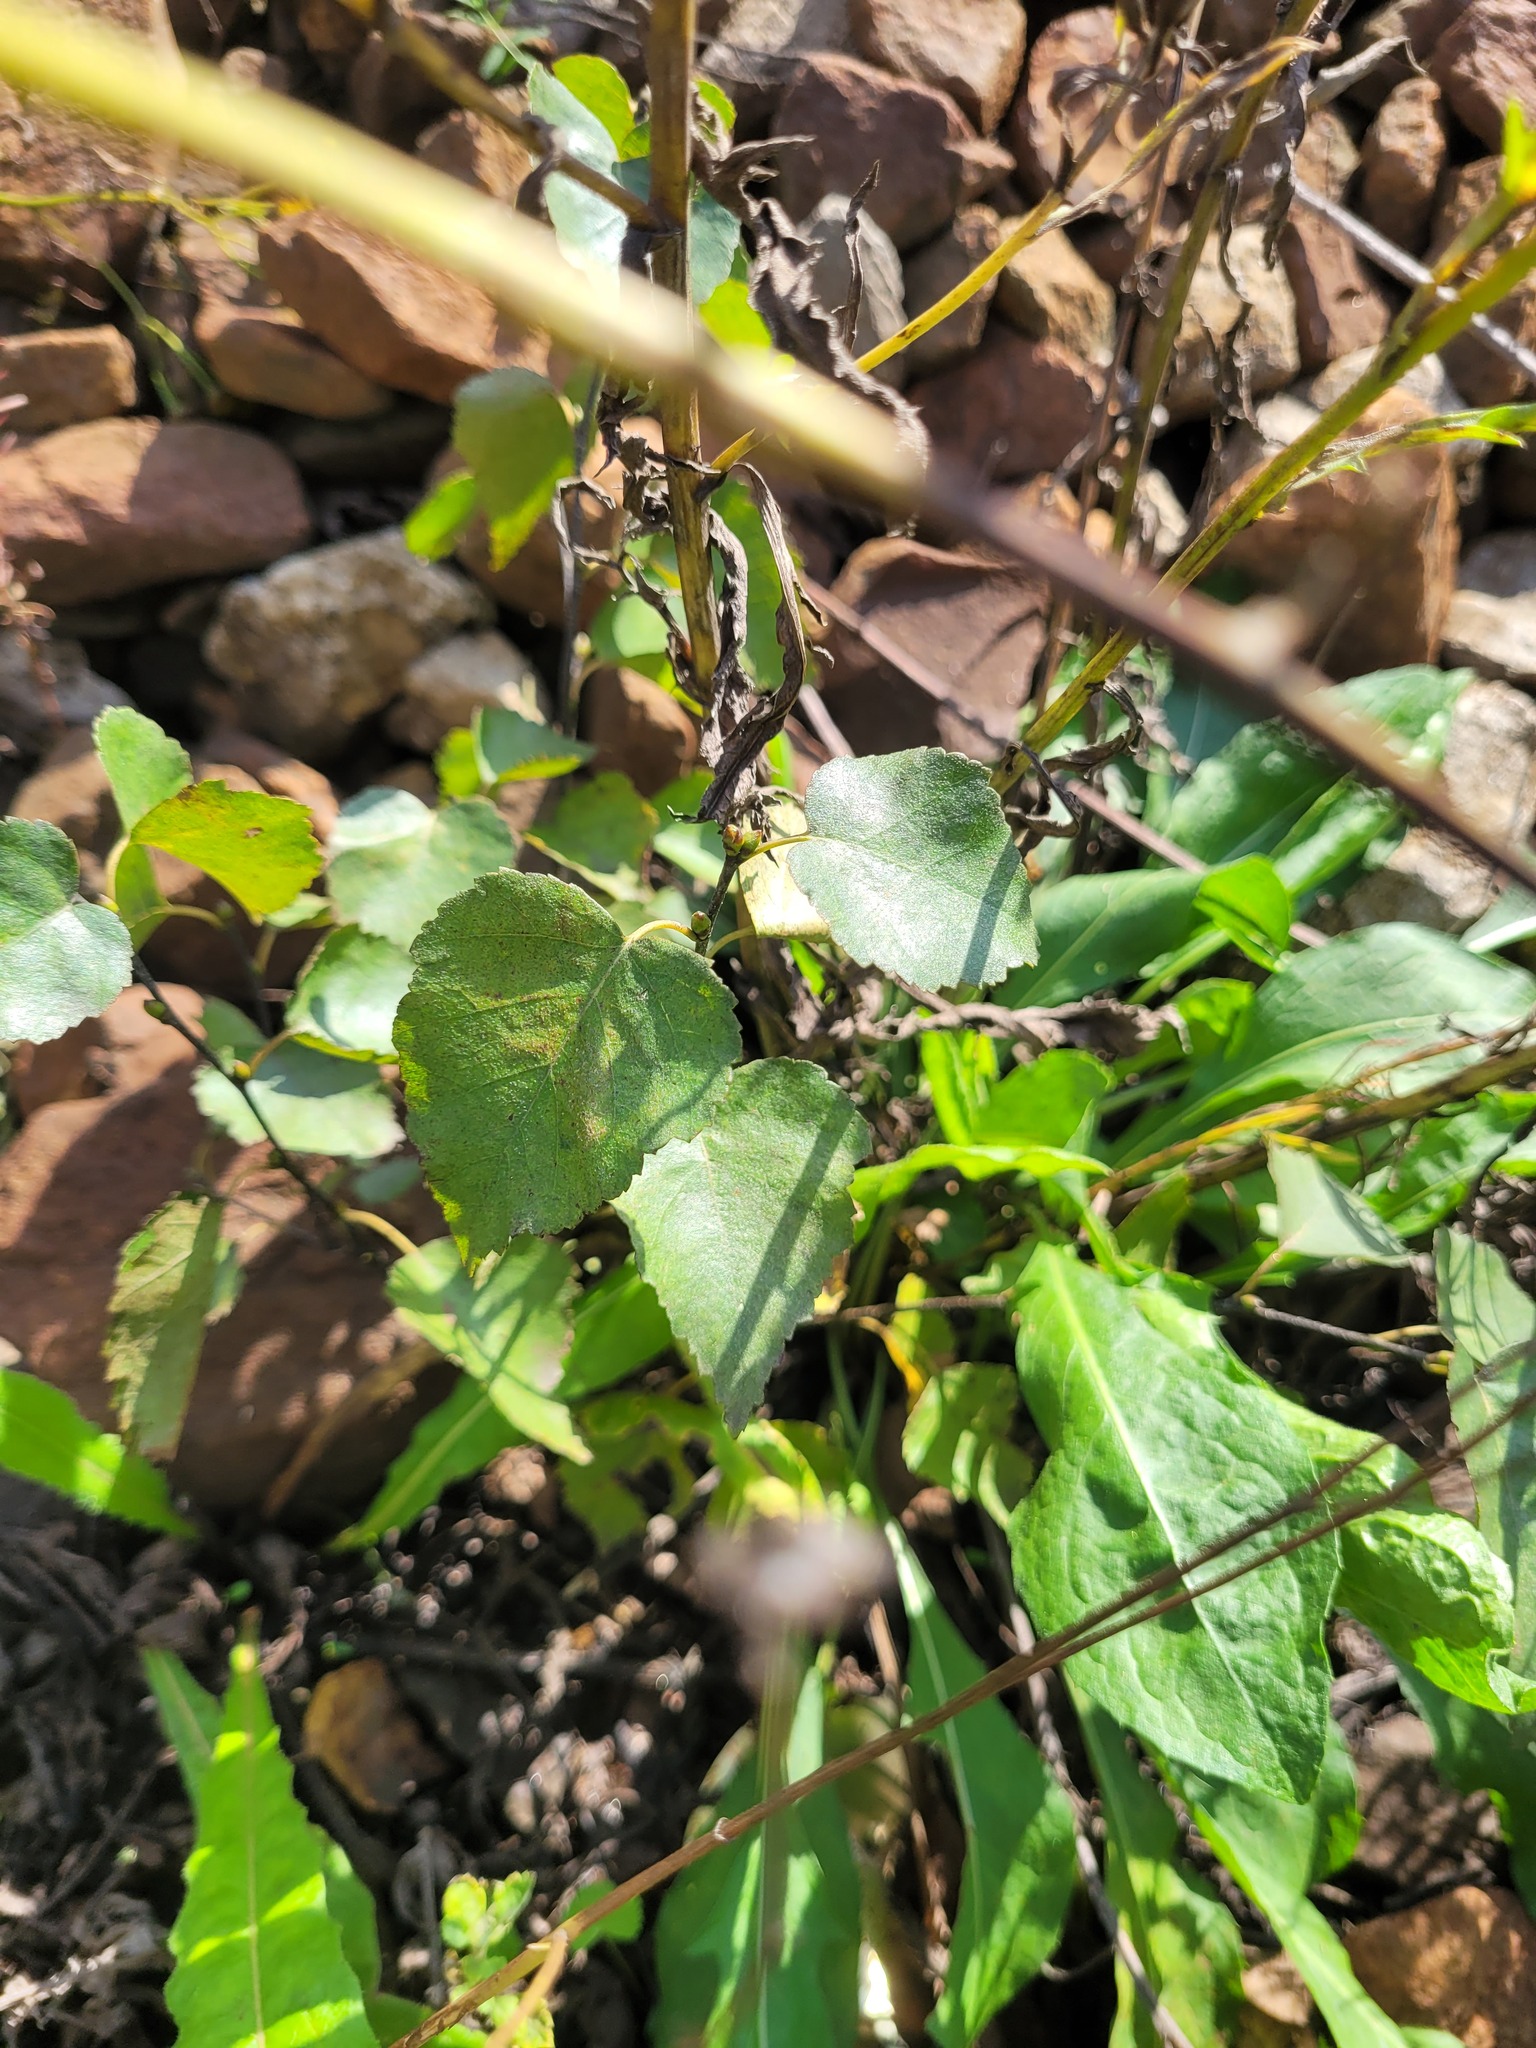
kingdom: Plantae
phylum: Tracheophyta
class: Magnoliopsida
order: Fagales
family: Betulaceae
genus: Betula
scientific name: Betula pendula
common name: Silver birch
